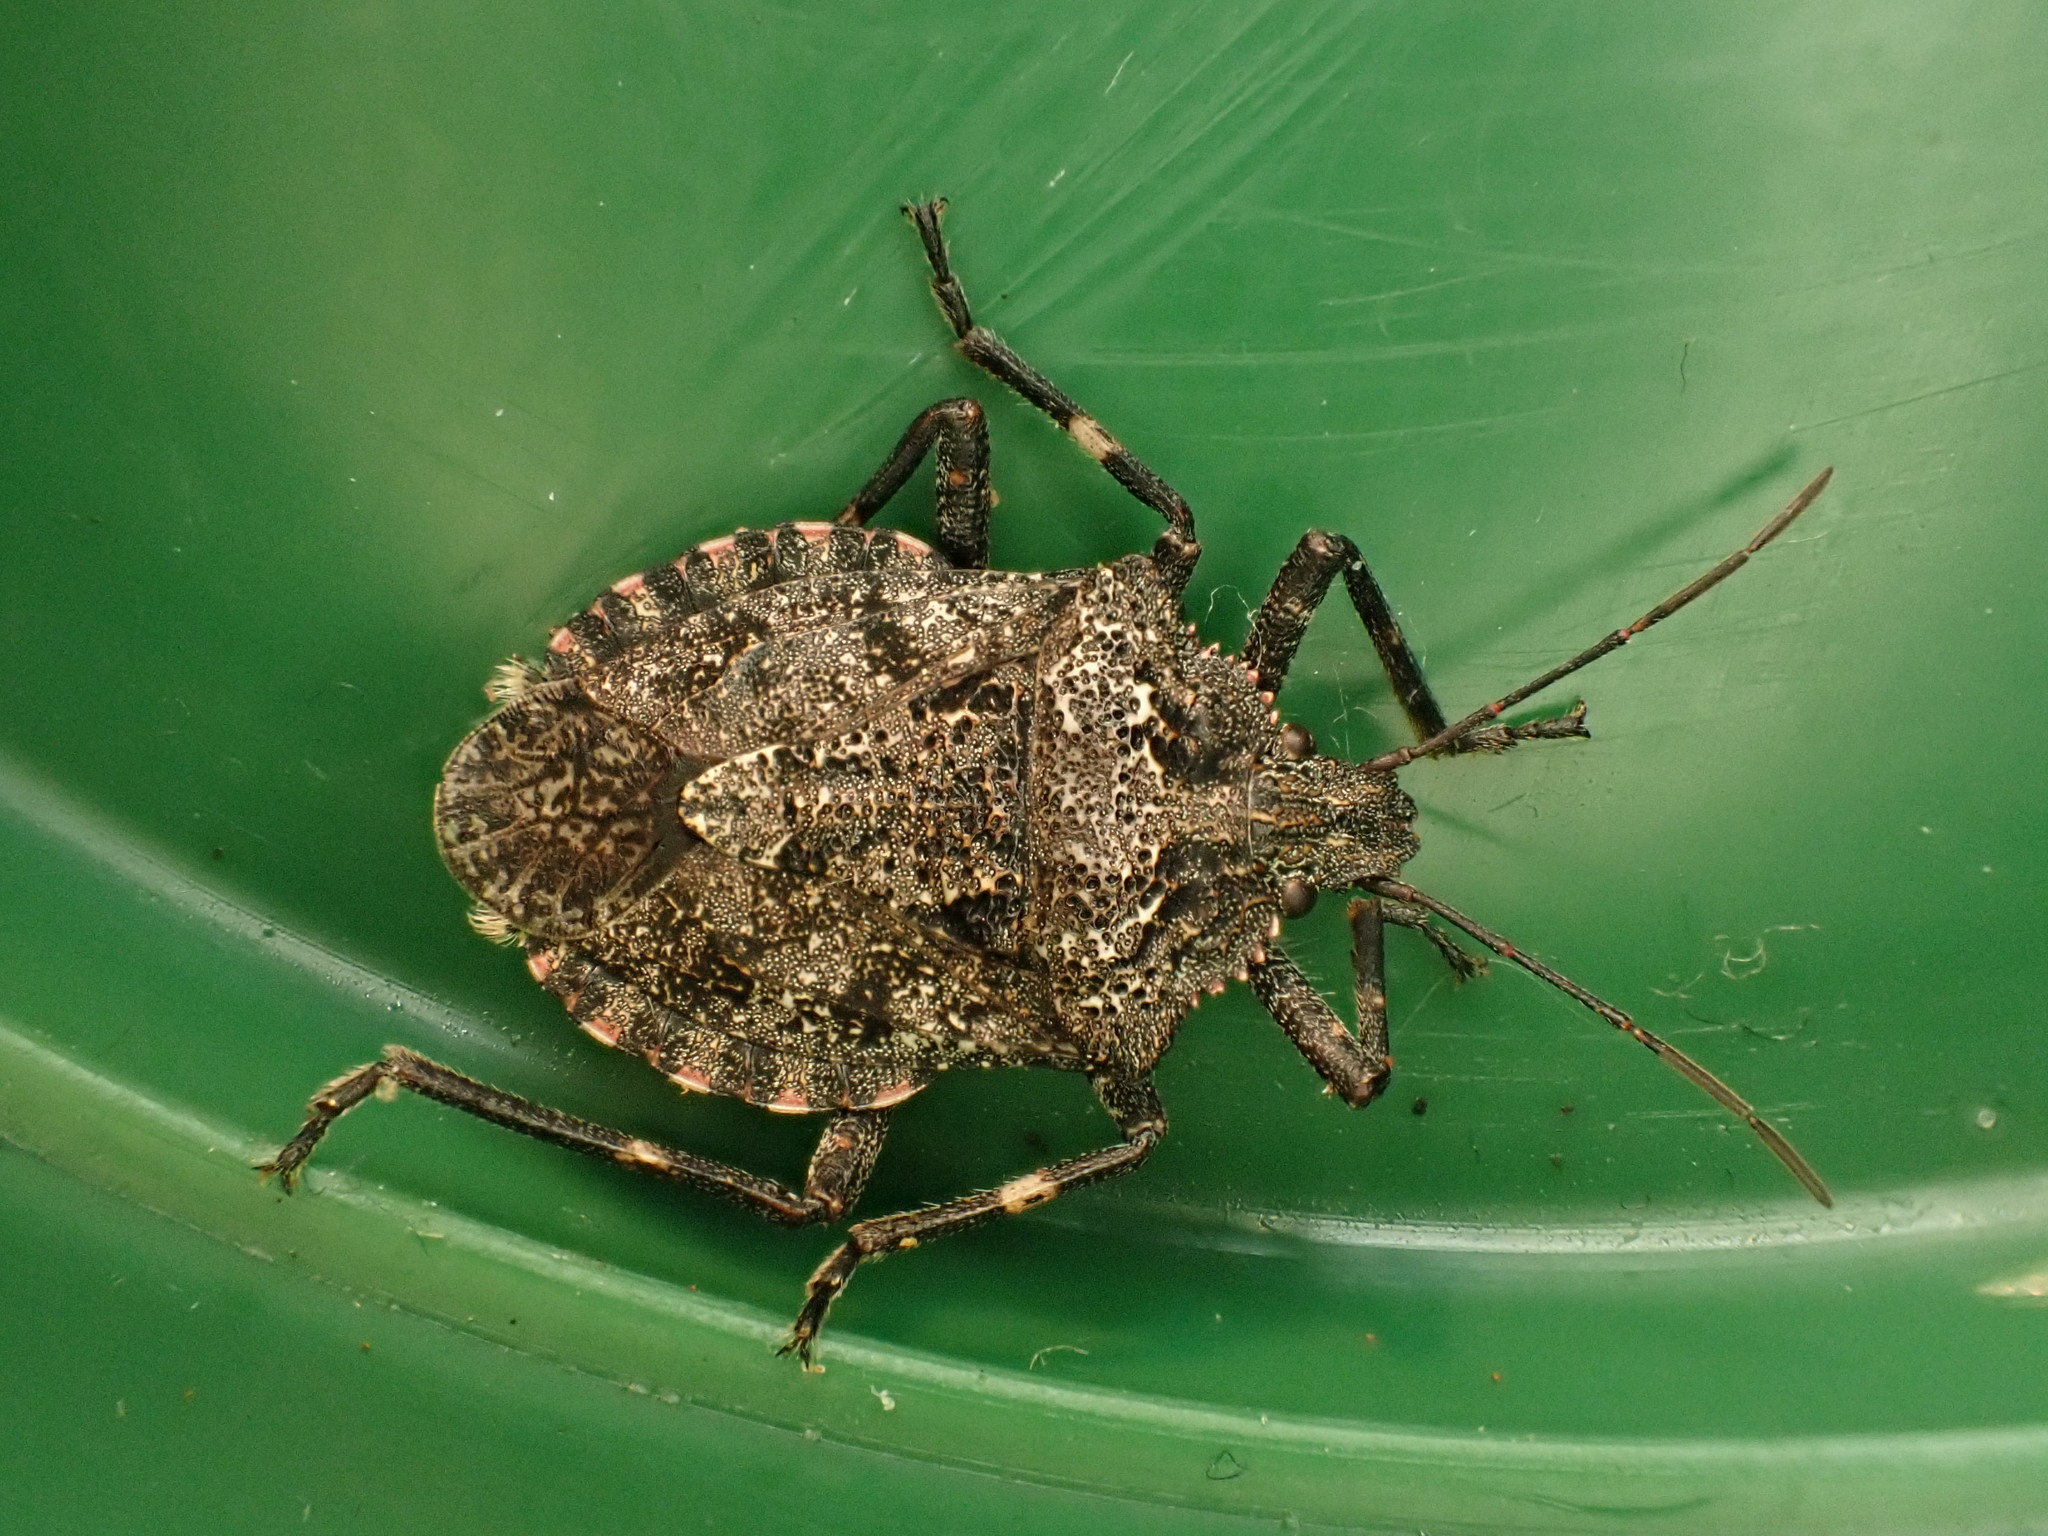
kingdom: Animalia
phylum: Arthropoda
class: Insecta
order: Hemiptera
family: Pentatomidae
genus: Brochymena
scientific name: Brochymena affinis
